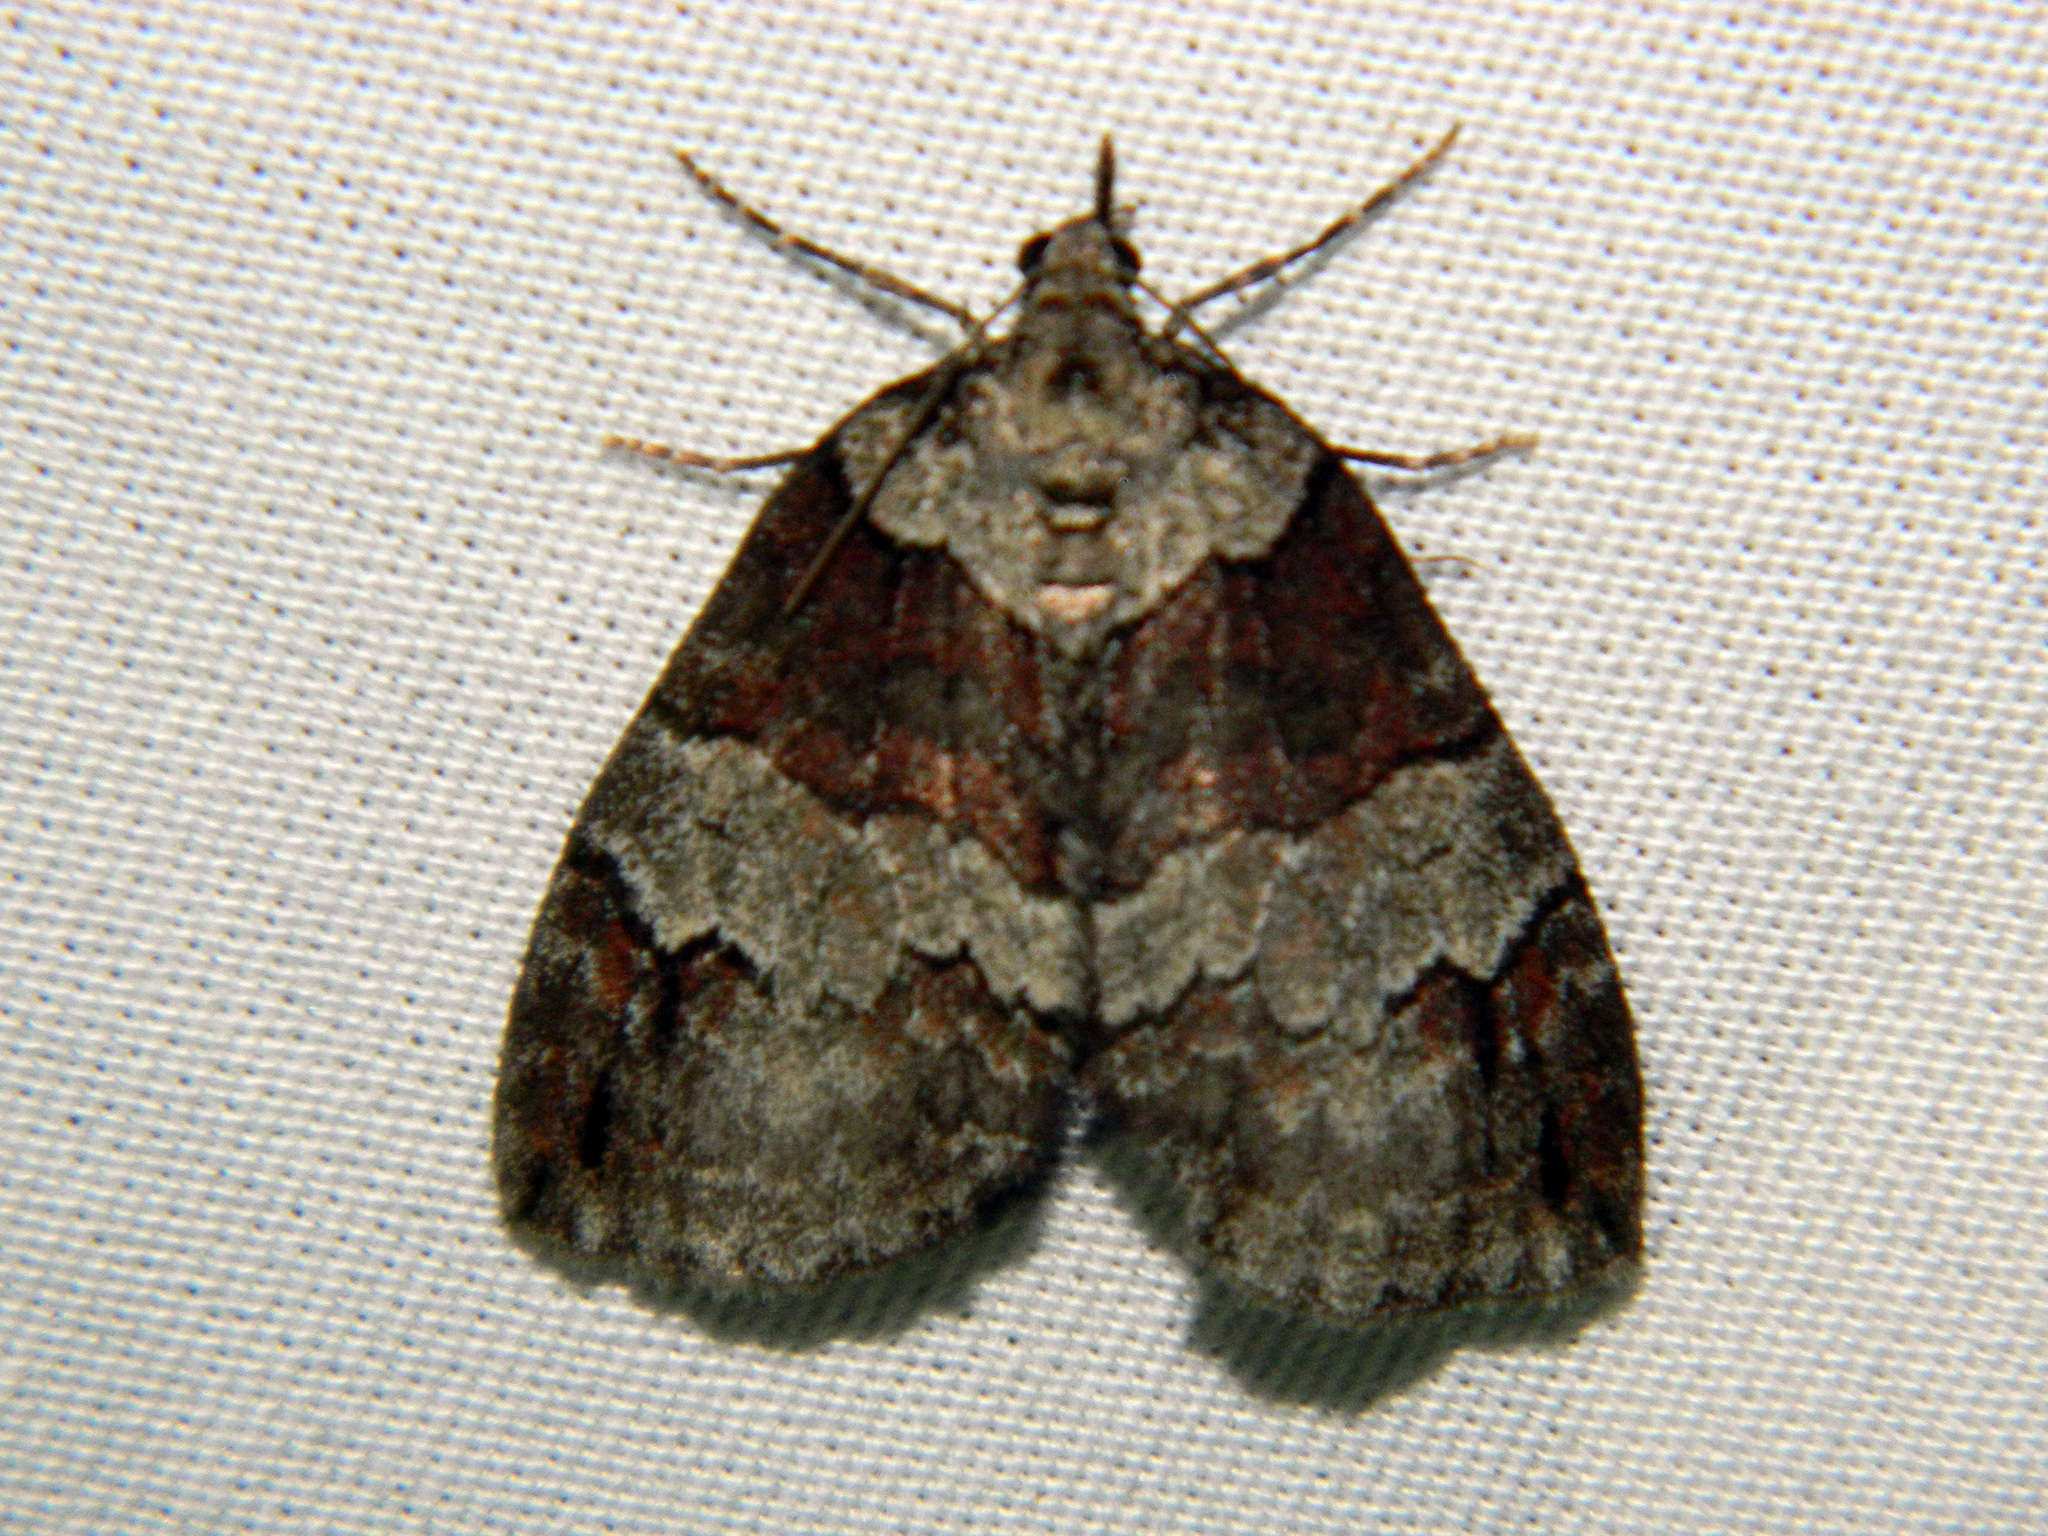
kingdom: Animalia
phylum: Arthropoda
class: Insecta
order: Lepidoptera
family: Geometridae
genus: Hydriomena
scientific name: Hydriomena ruberata
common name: Ruddy highflyer
